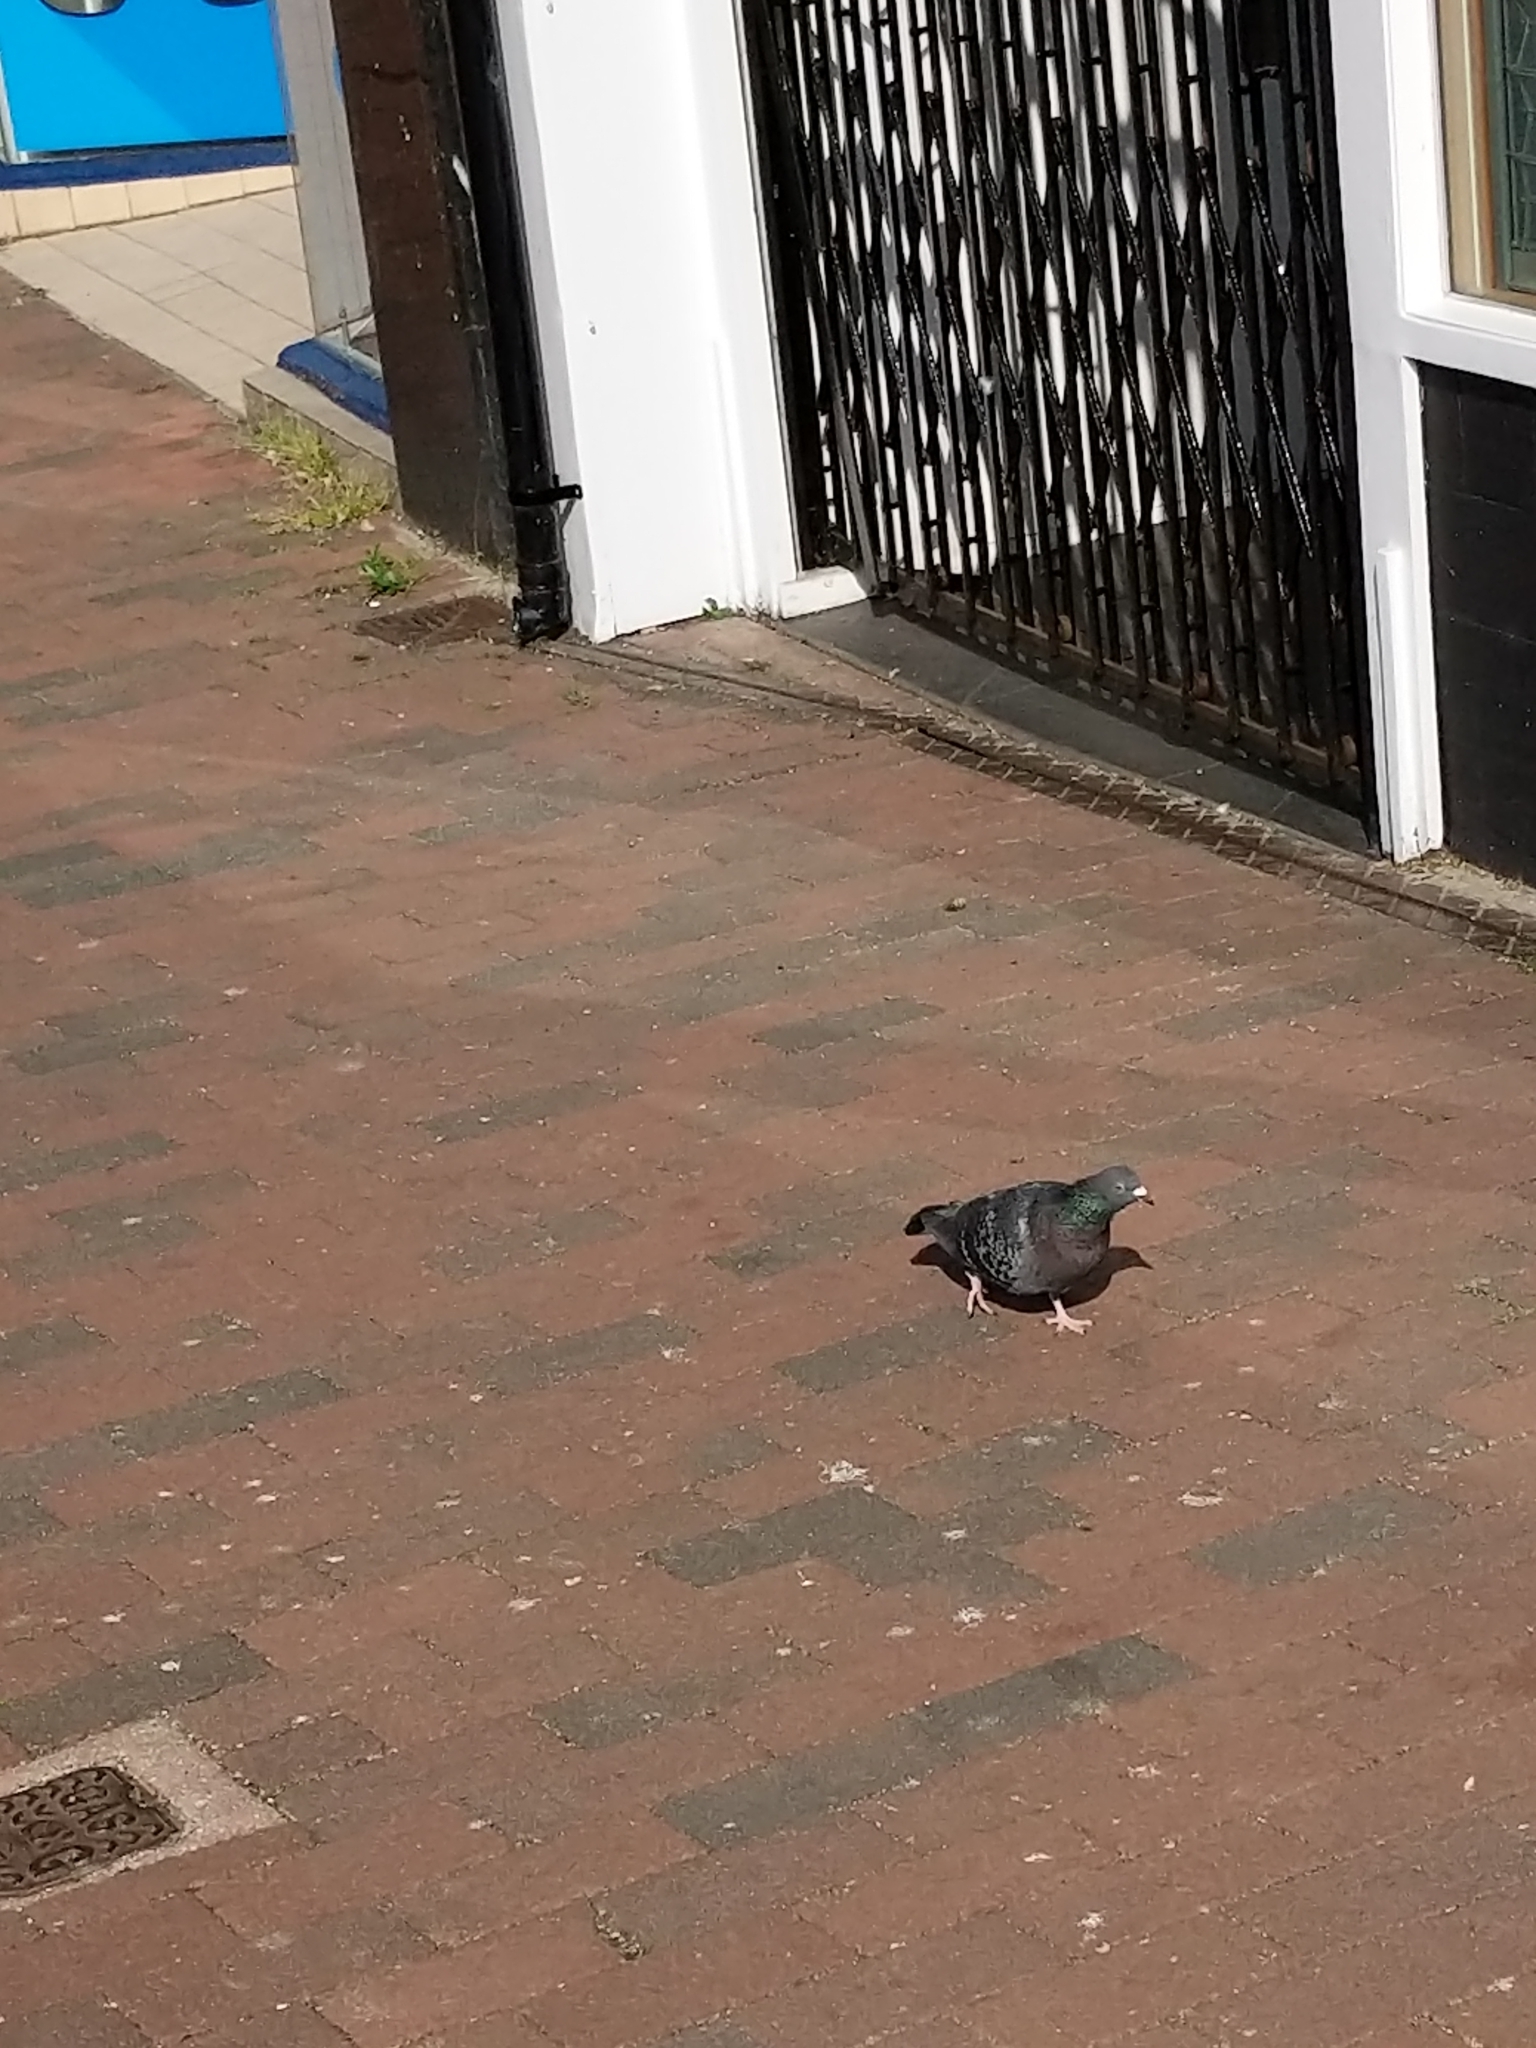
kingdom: Animalia
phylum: Chordata
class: Aves
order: Columbiformes
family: Columbidae
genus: Columba
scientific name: Columba livia
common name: Rock pigeon
